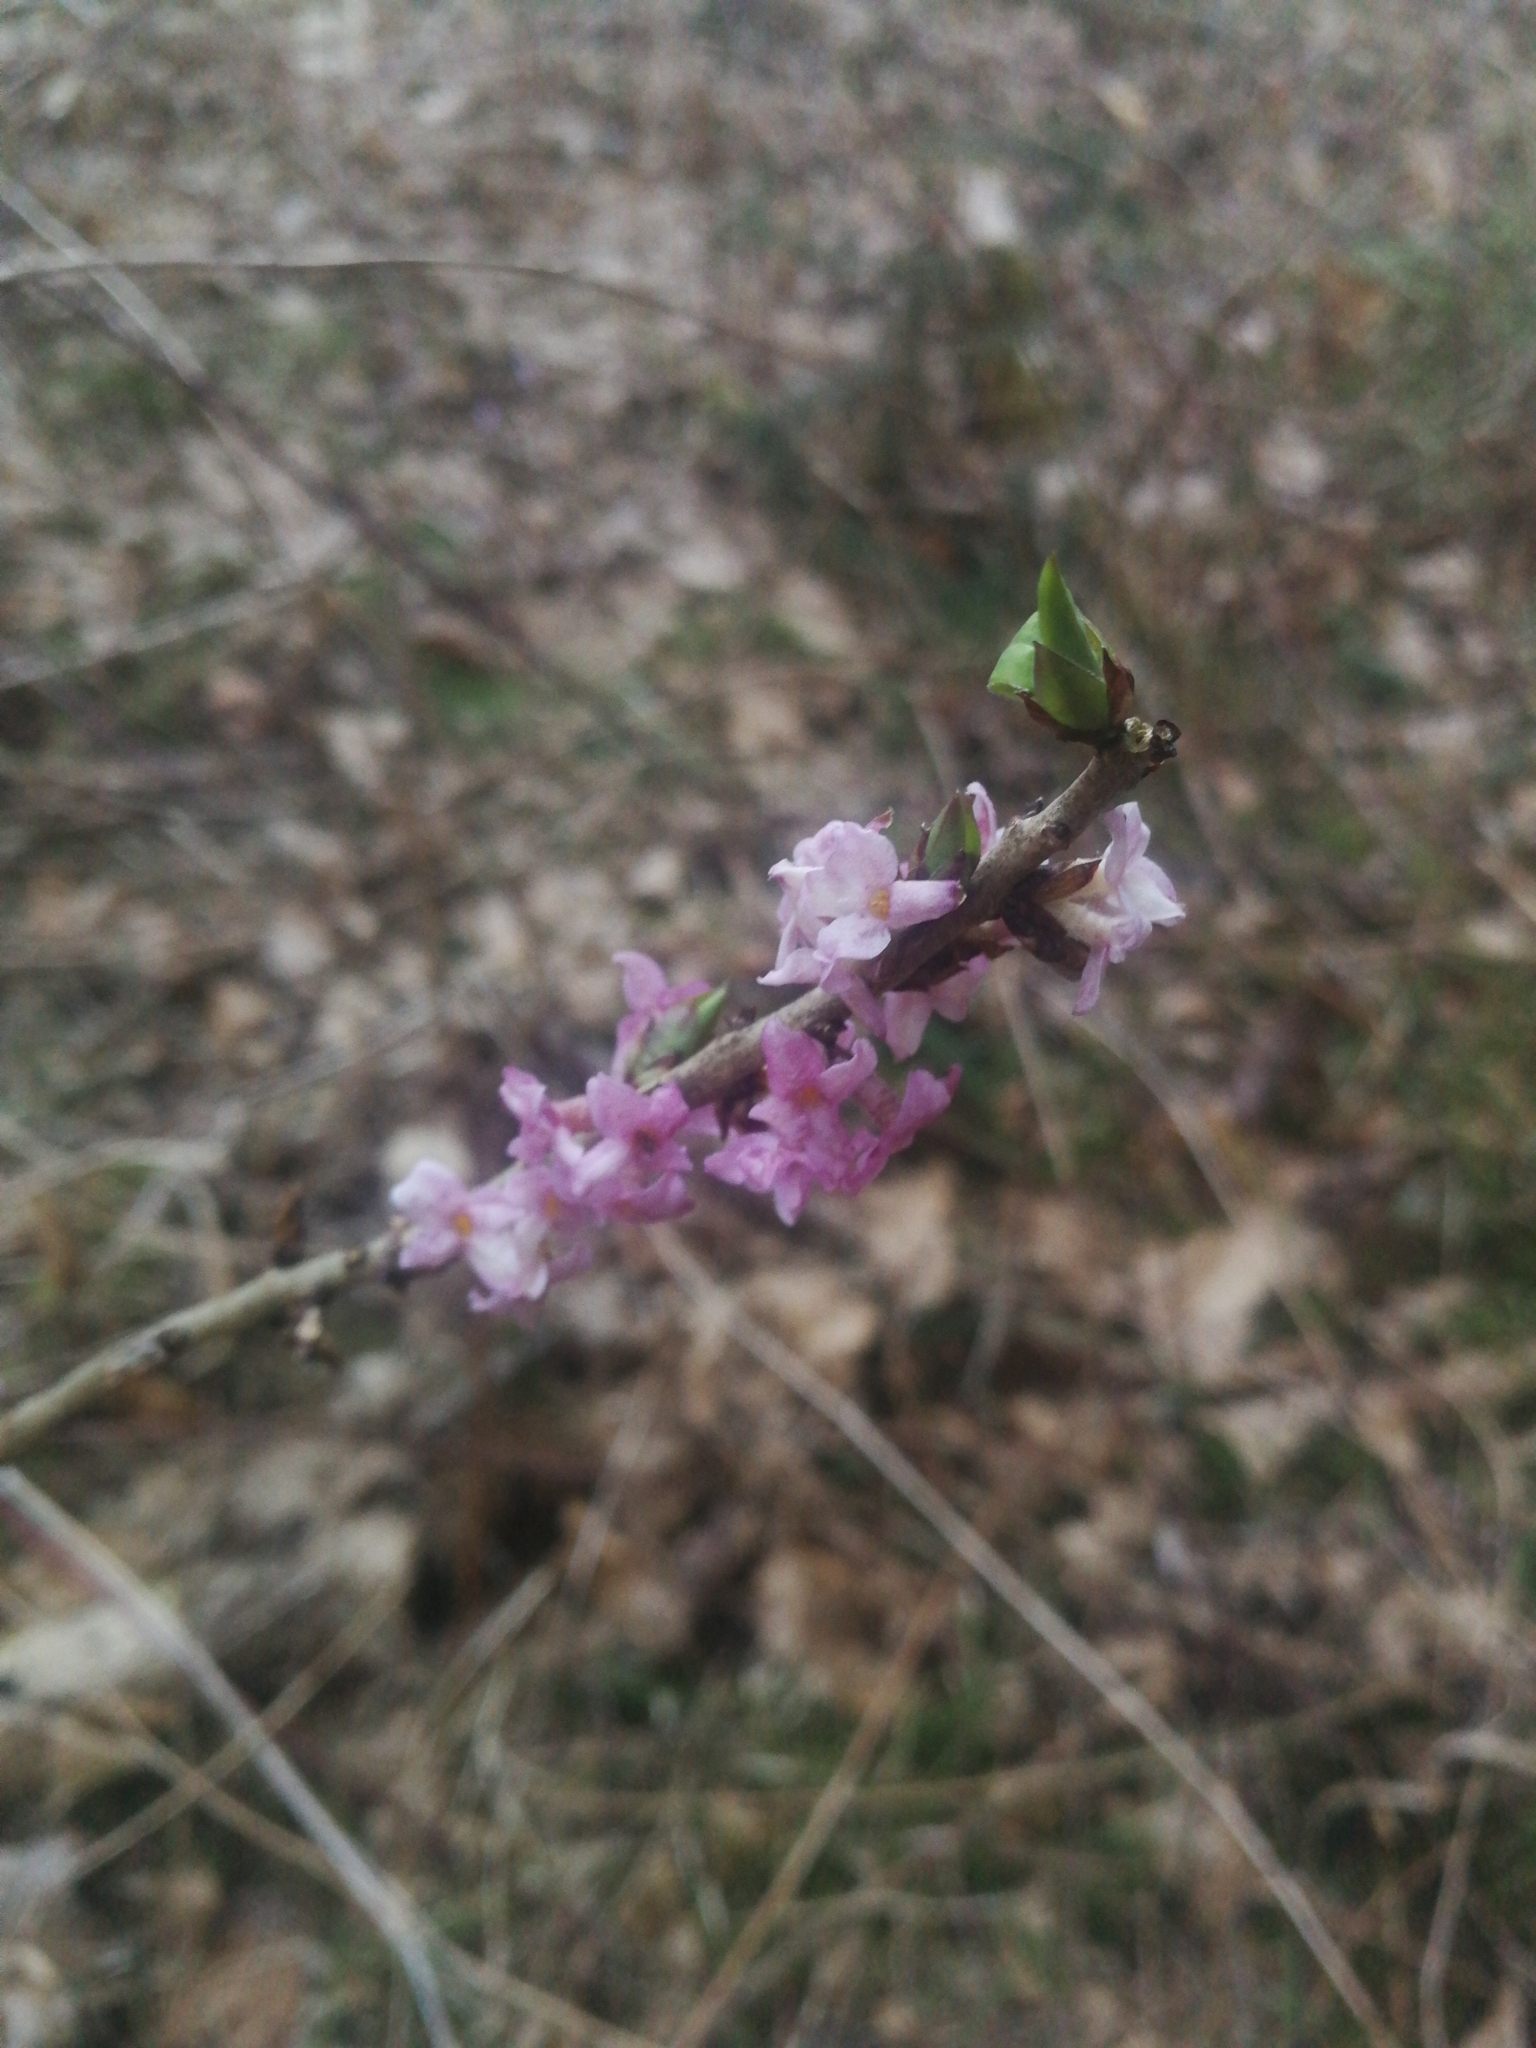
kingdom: Plantae
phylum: Tracheophyta
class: Magnoliopsida
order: Malvales
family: Thymelaeaceae
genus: Daphne
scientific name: Daphne mezereum
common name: Mezereon
